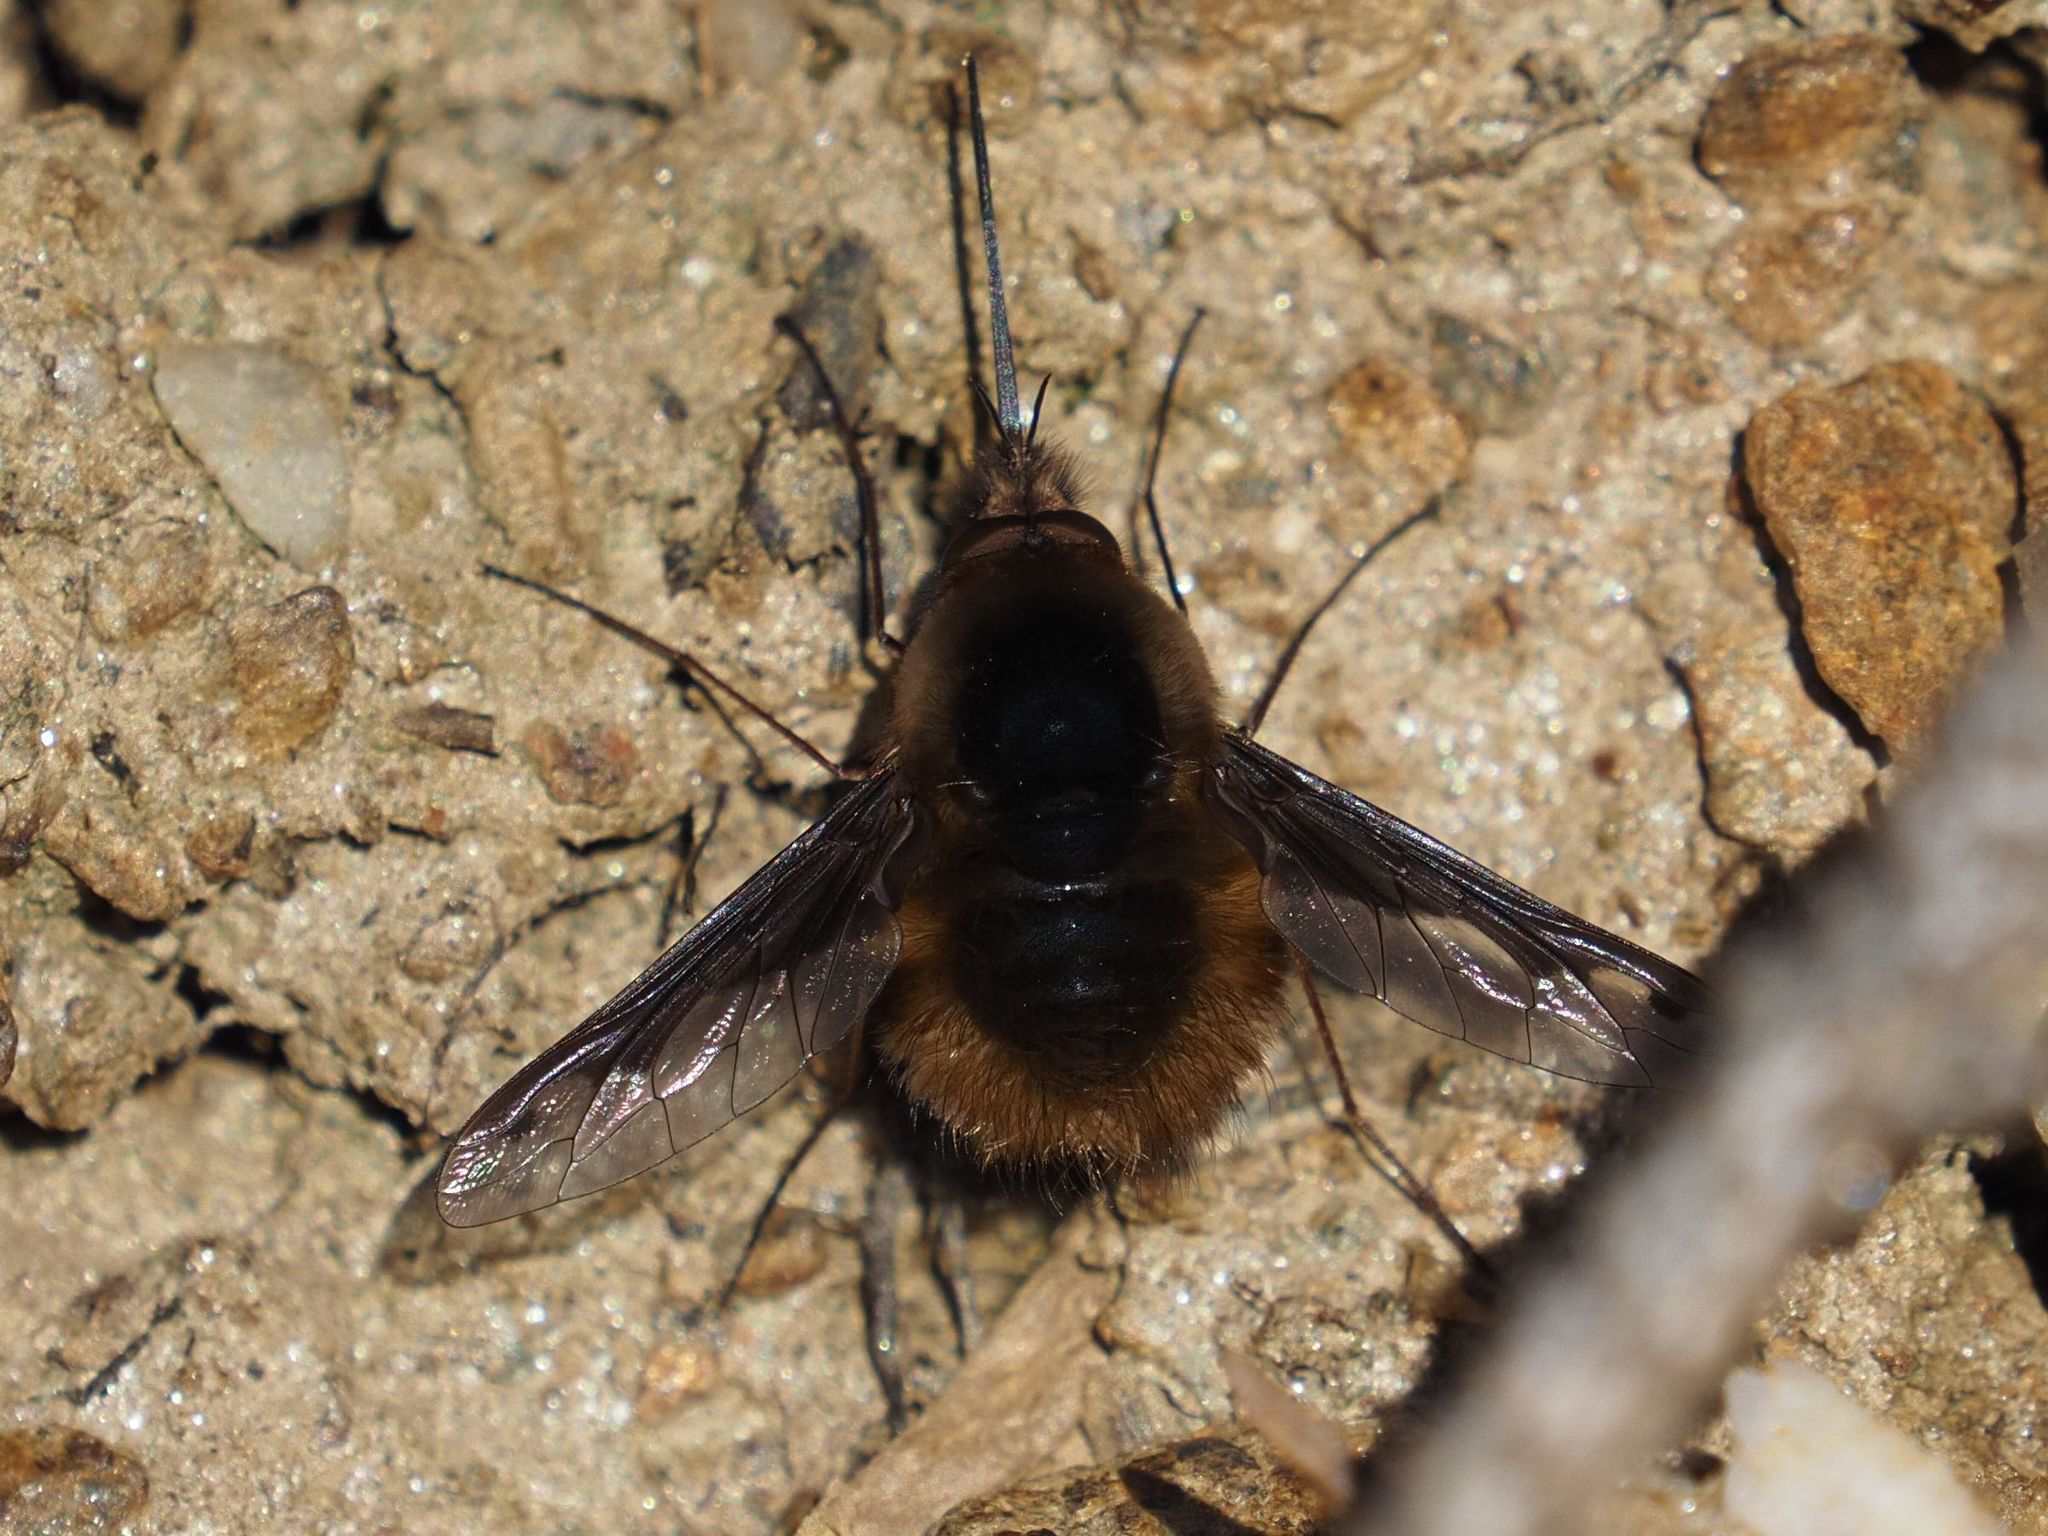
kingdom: Animalia
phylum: Arthropoda
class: Insecta
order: Diptera
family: Bombyliidae
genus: Bombylius
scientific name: Bombylius major
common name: Bee fly
